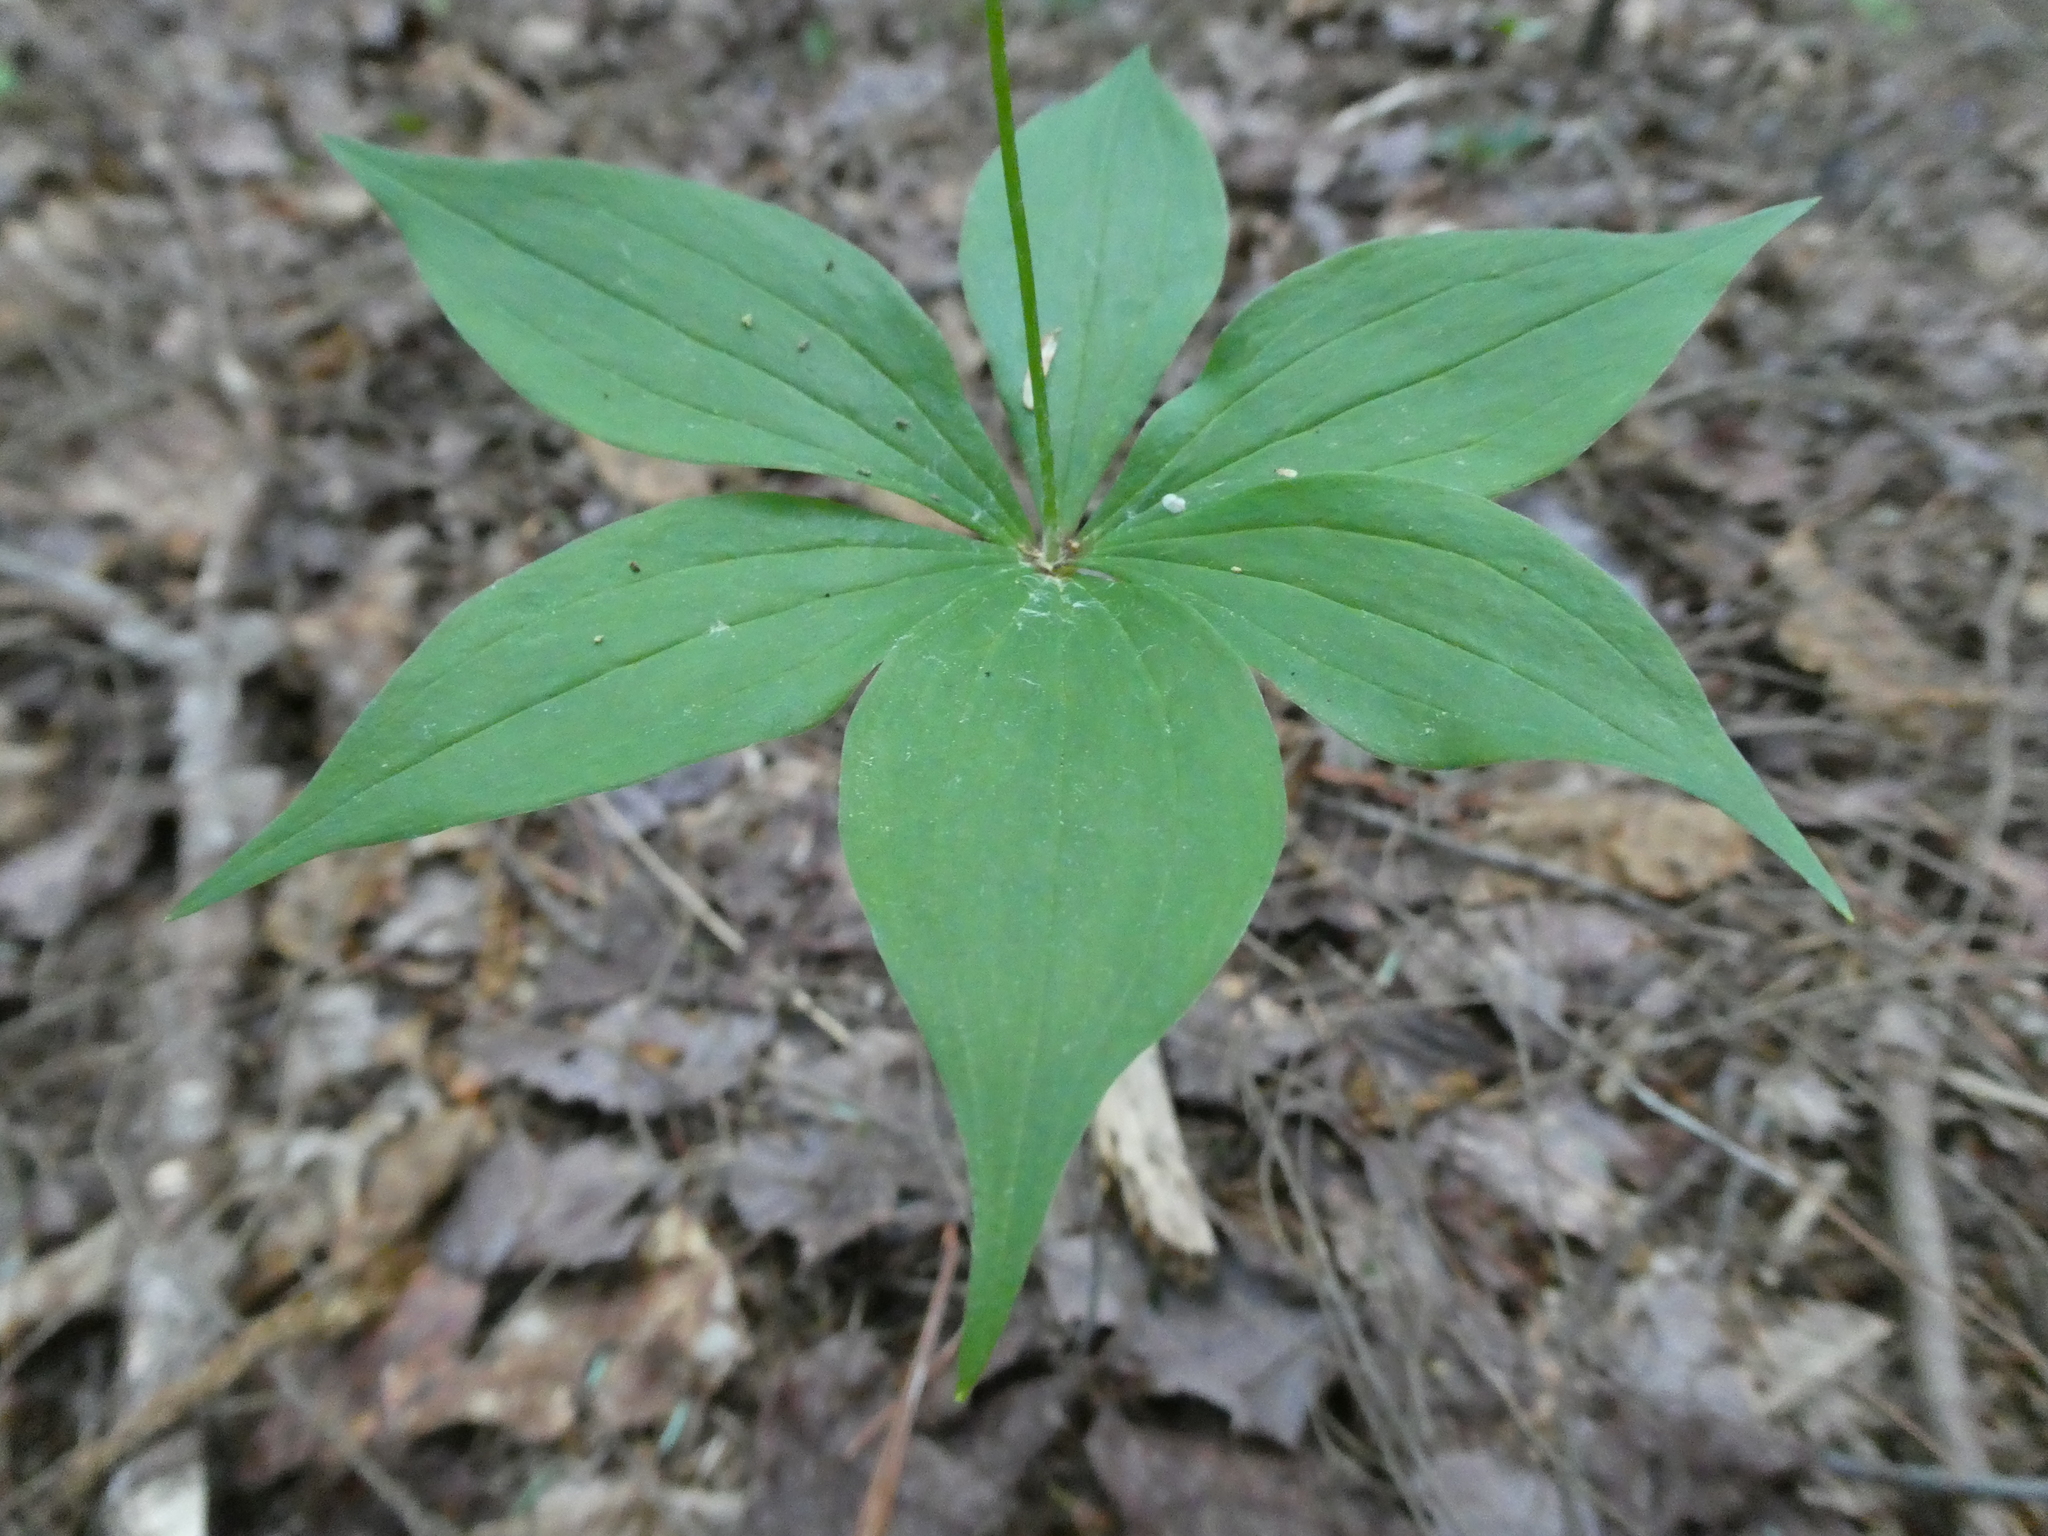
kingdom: Plantae
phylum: Tracheophyta
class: Liliopsida
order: Liliales
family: Liliaceae
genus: Medeola
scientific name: Medeola virginiana
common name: Indian cucumber-root
